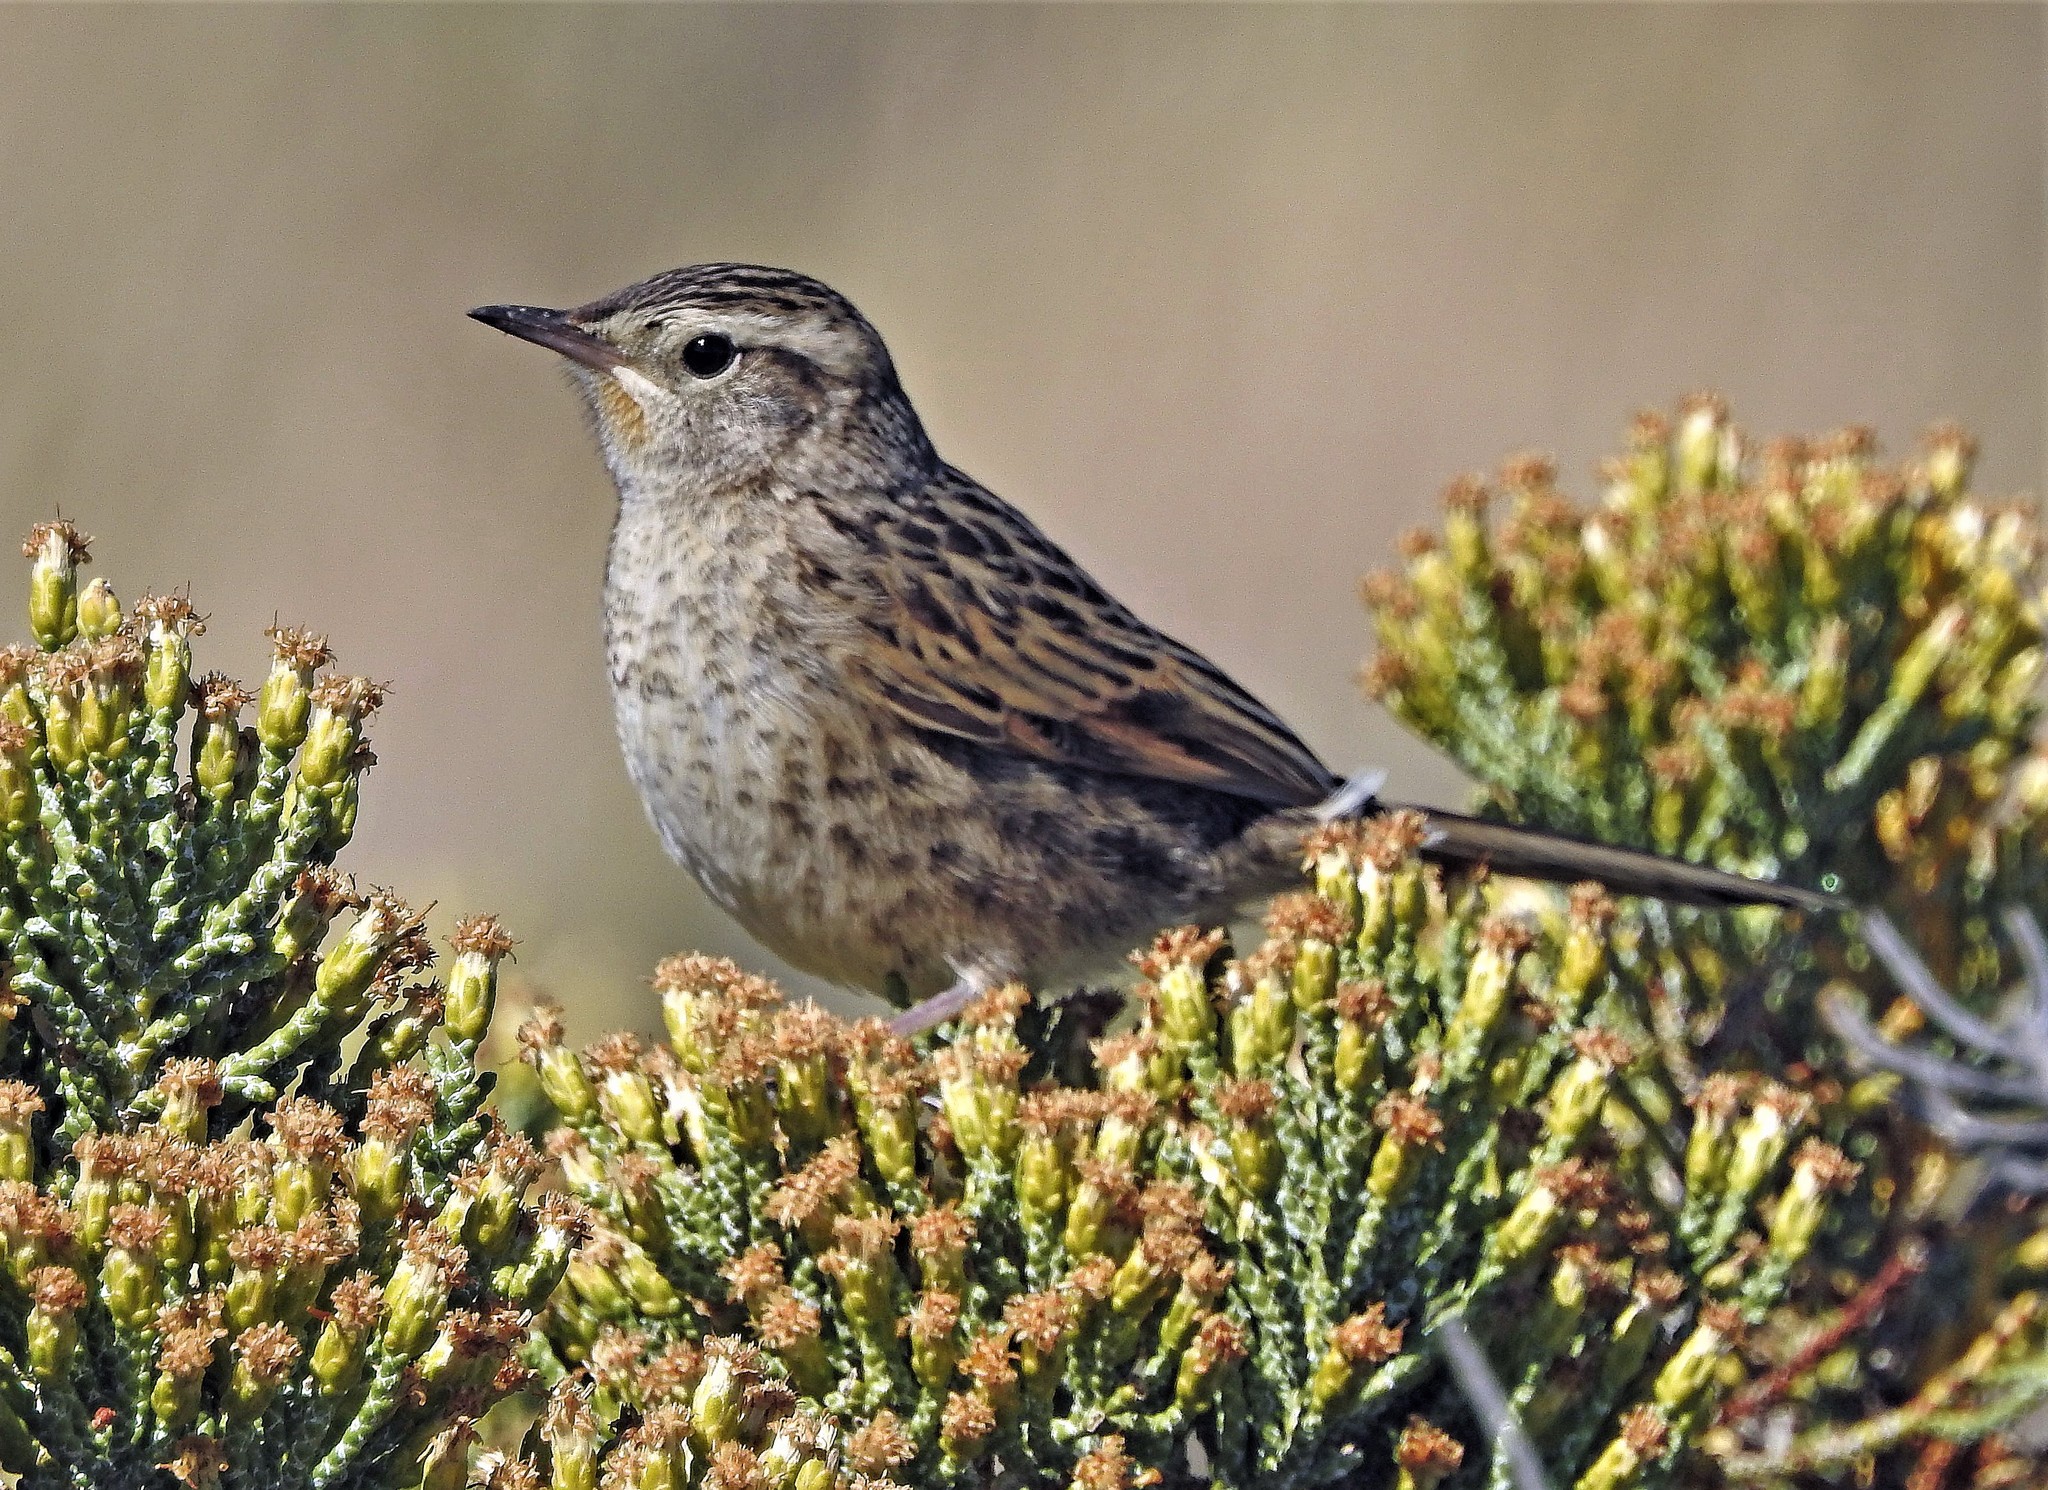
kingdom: Animalia
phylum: Chordata
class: Aves
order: Passeriformes
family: Furnariidae
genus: Asthenes
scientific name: Asthenes anthoides
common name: Austral canastero
